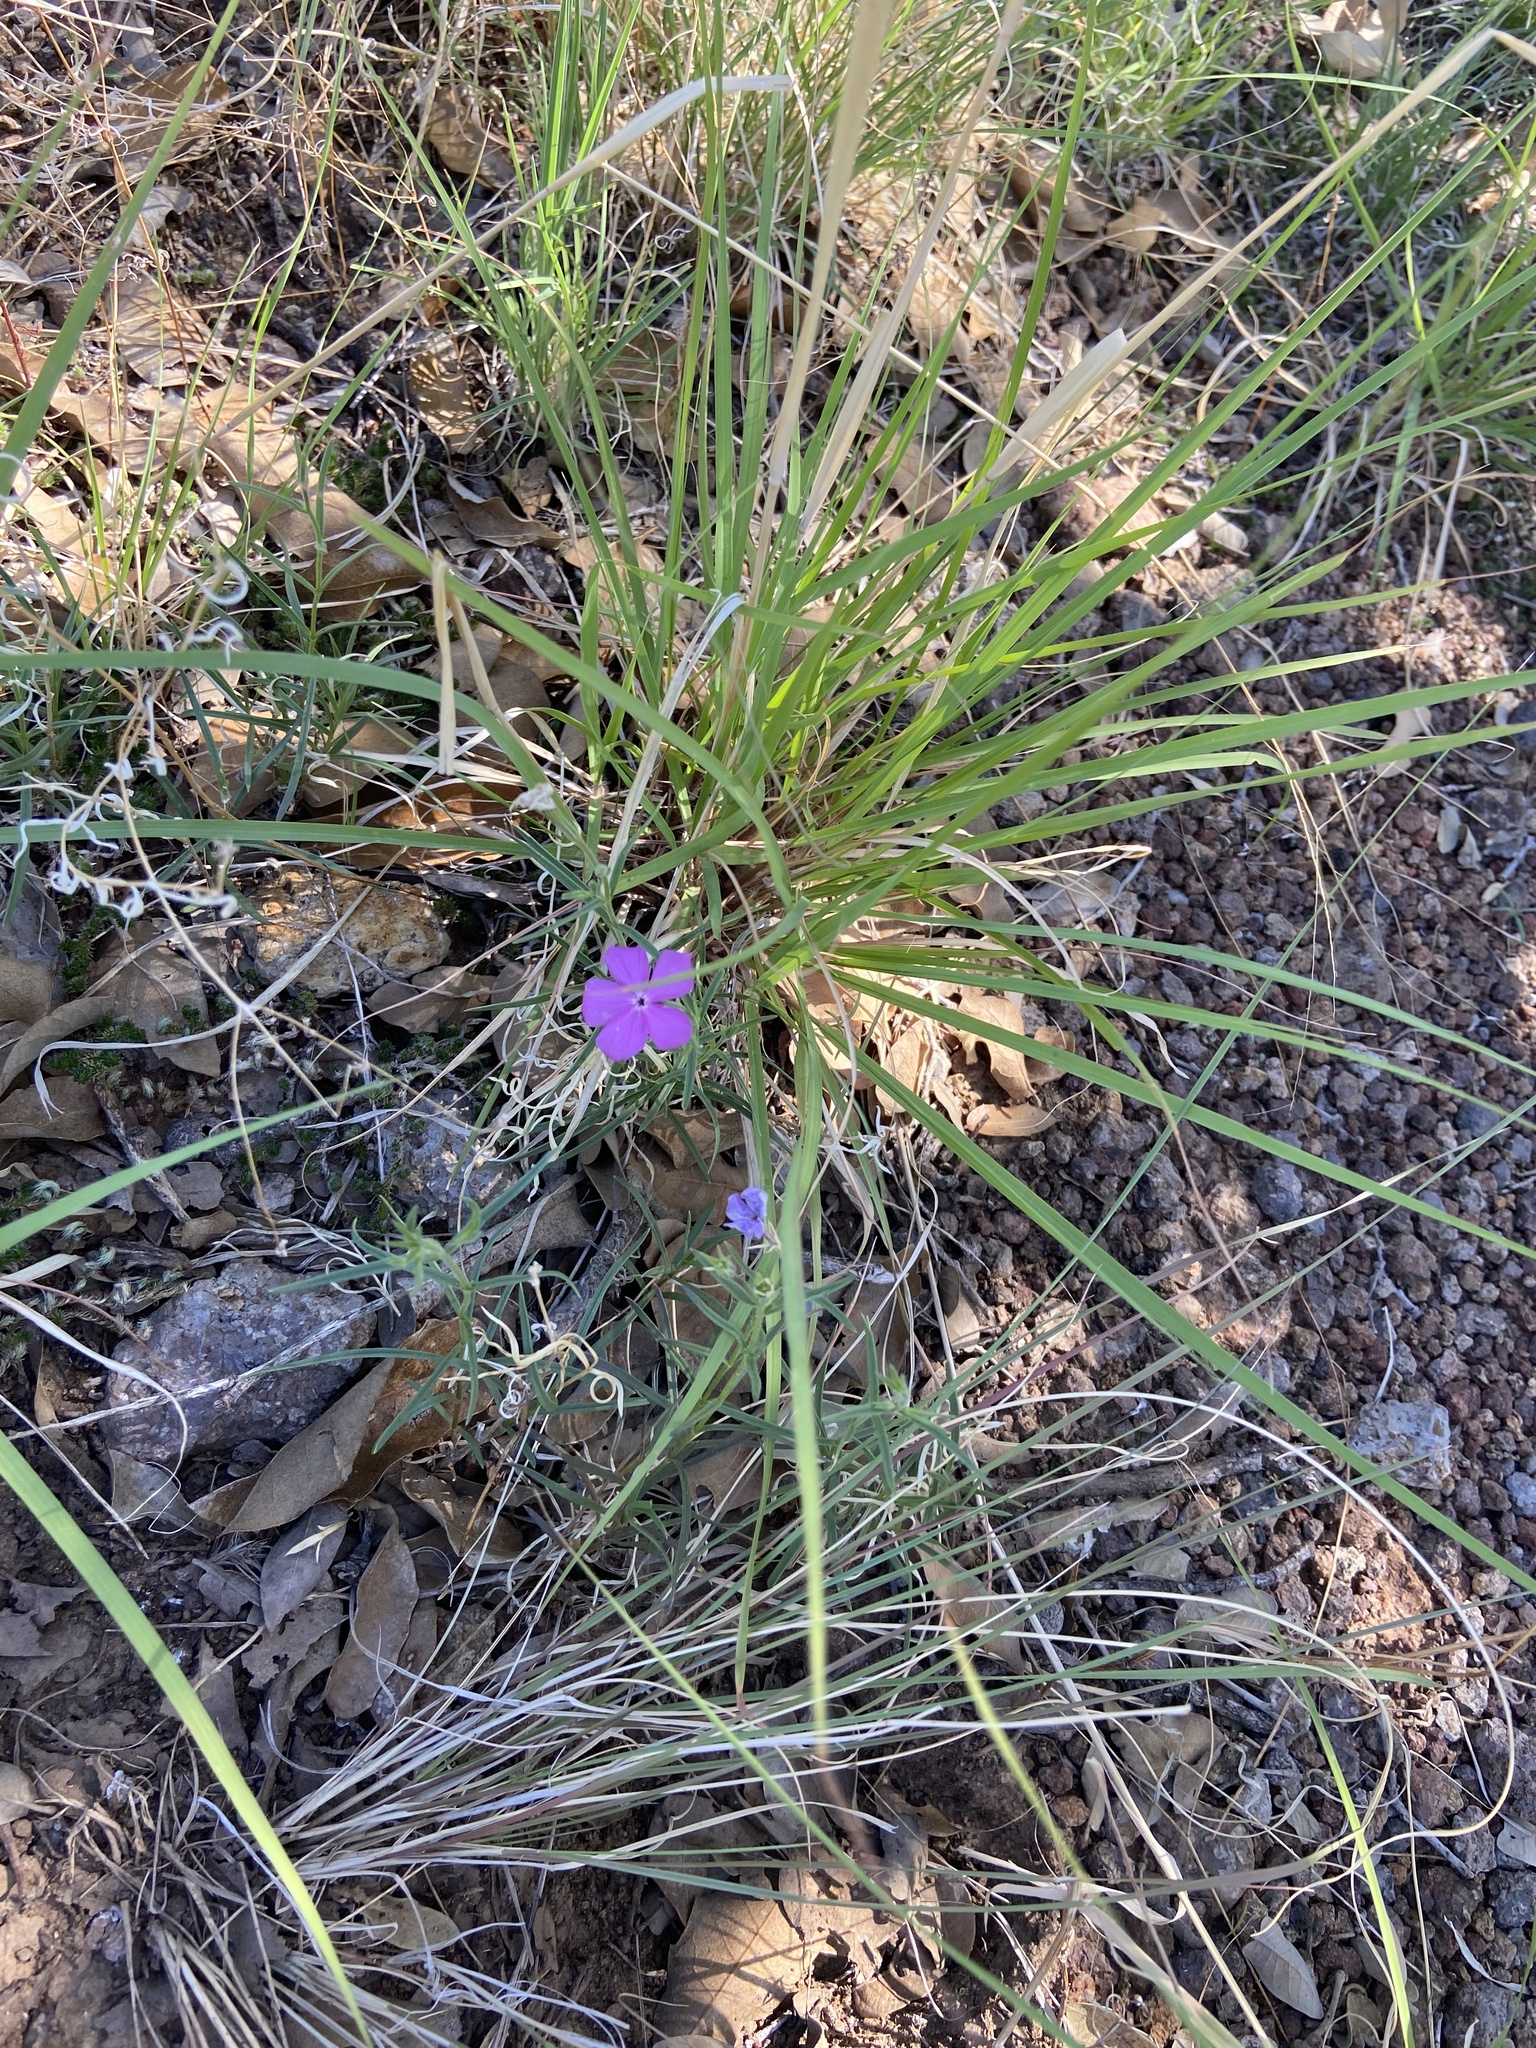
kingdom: Plantae
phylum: Tracheophyta
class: Magnoliopsida
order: Ericales
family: Polemoniaceae
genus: Phlox
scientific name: Phlox nana
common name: Santa fe phlox
